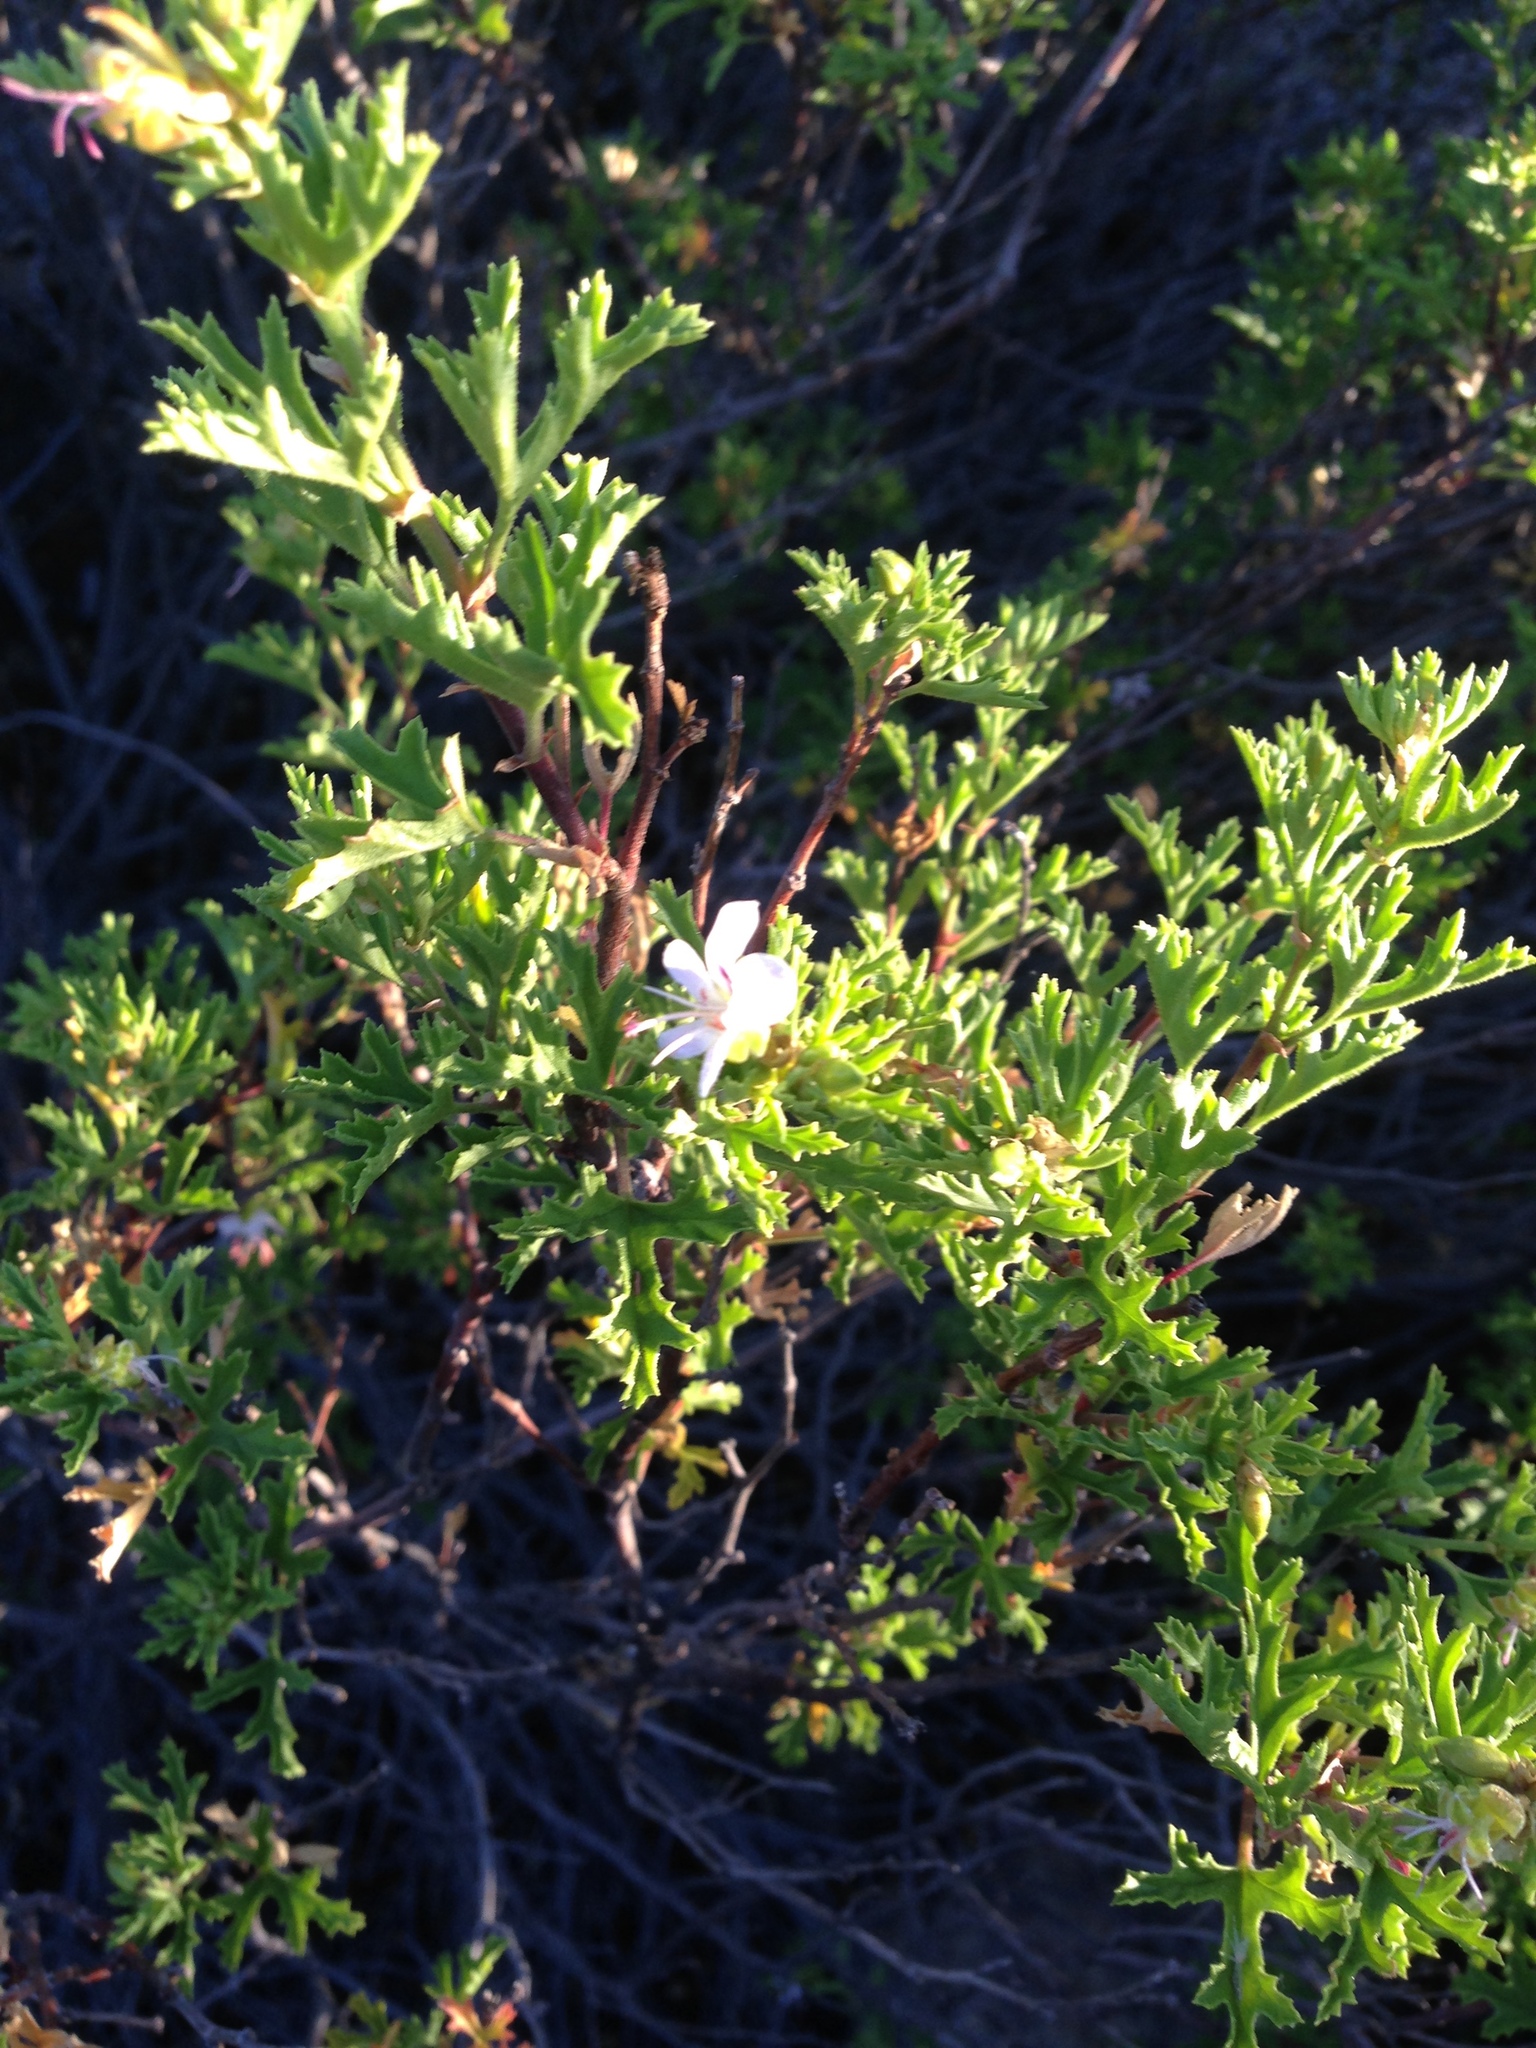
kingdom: Plantae
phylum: Tracheophyta
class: Magnoliopsida
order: Geraniales
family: Geraniaceae
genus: Pelargonium
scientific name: Pelargonium scabrum
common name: Apricot geranium
